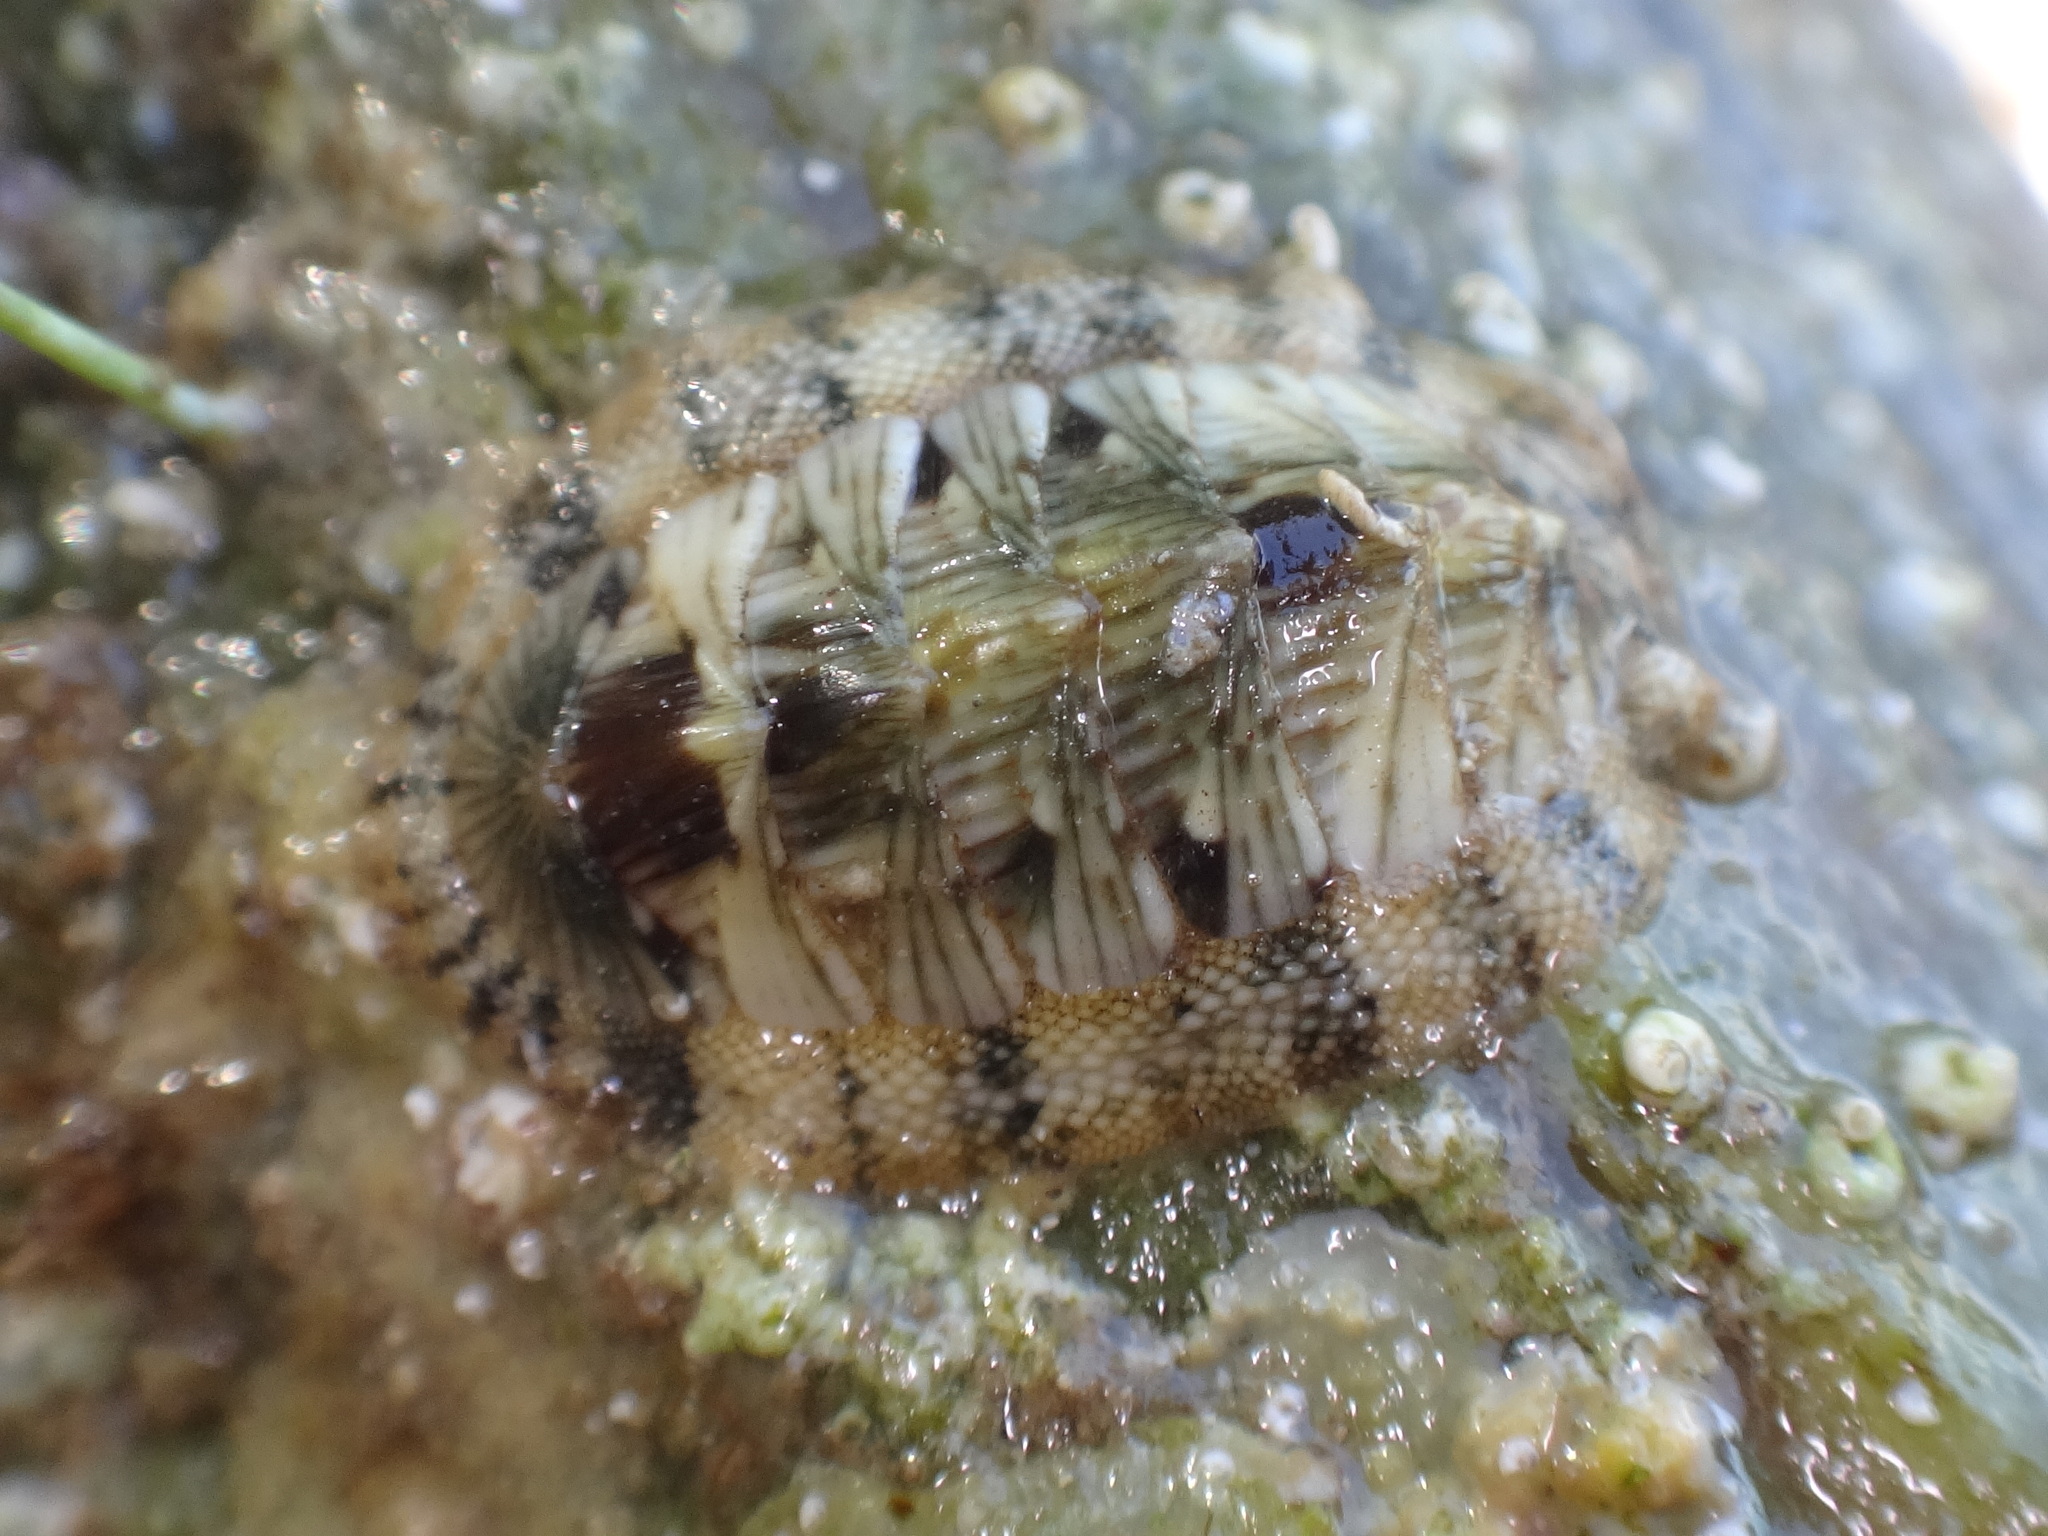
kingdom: Animalia
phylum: Mollusca
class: Polyplacophora
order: Chitonida
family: Chitonidae
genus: Rhyssoplax
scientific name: Rhyssoplax olivacea
